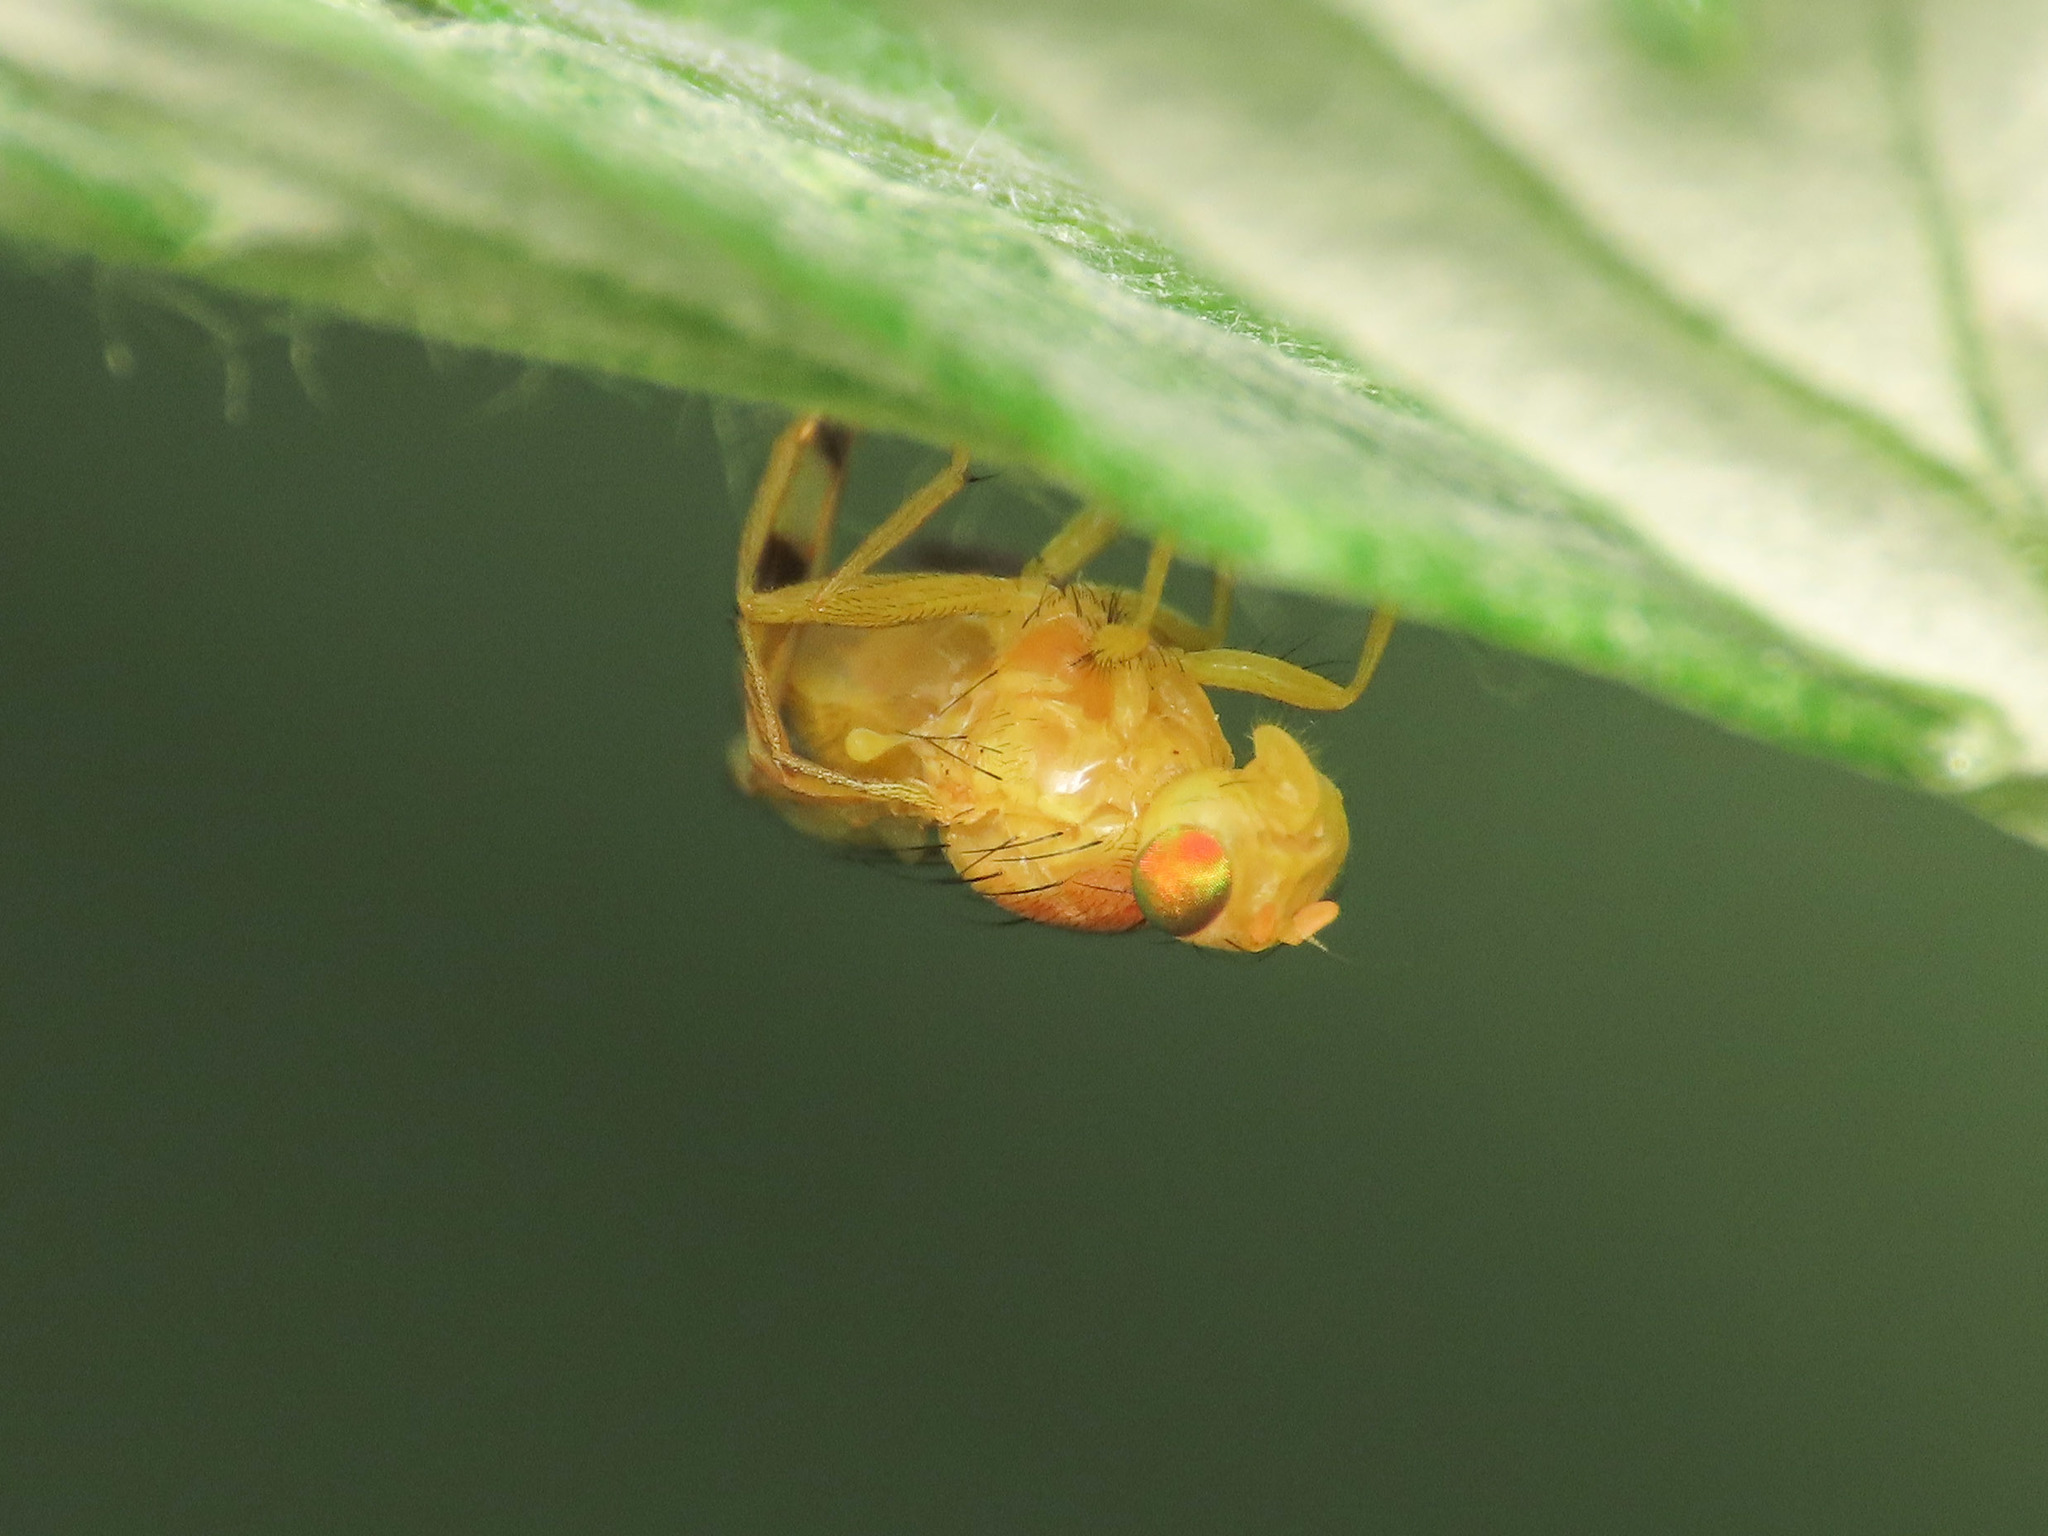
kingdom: Animalia
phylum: Arthropoda
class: Insecta
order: Diptera
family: Tephritidae
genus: Trypeta
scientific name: Trypeta artemisiae
